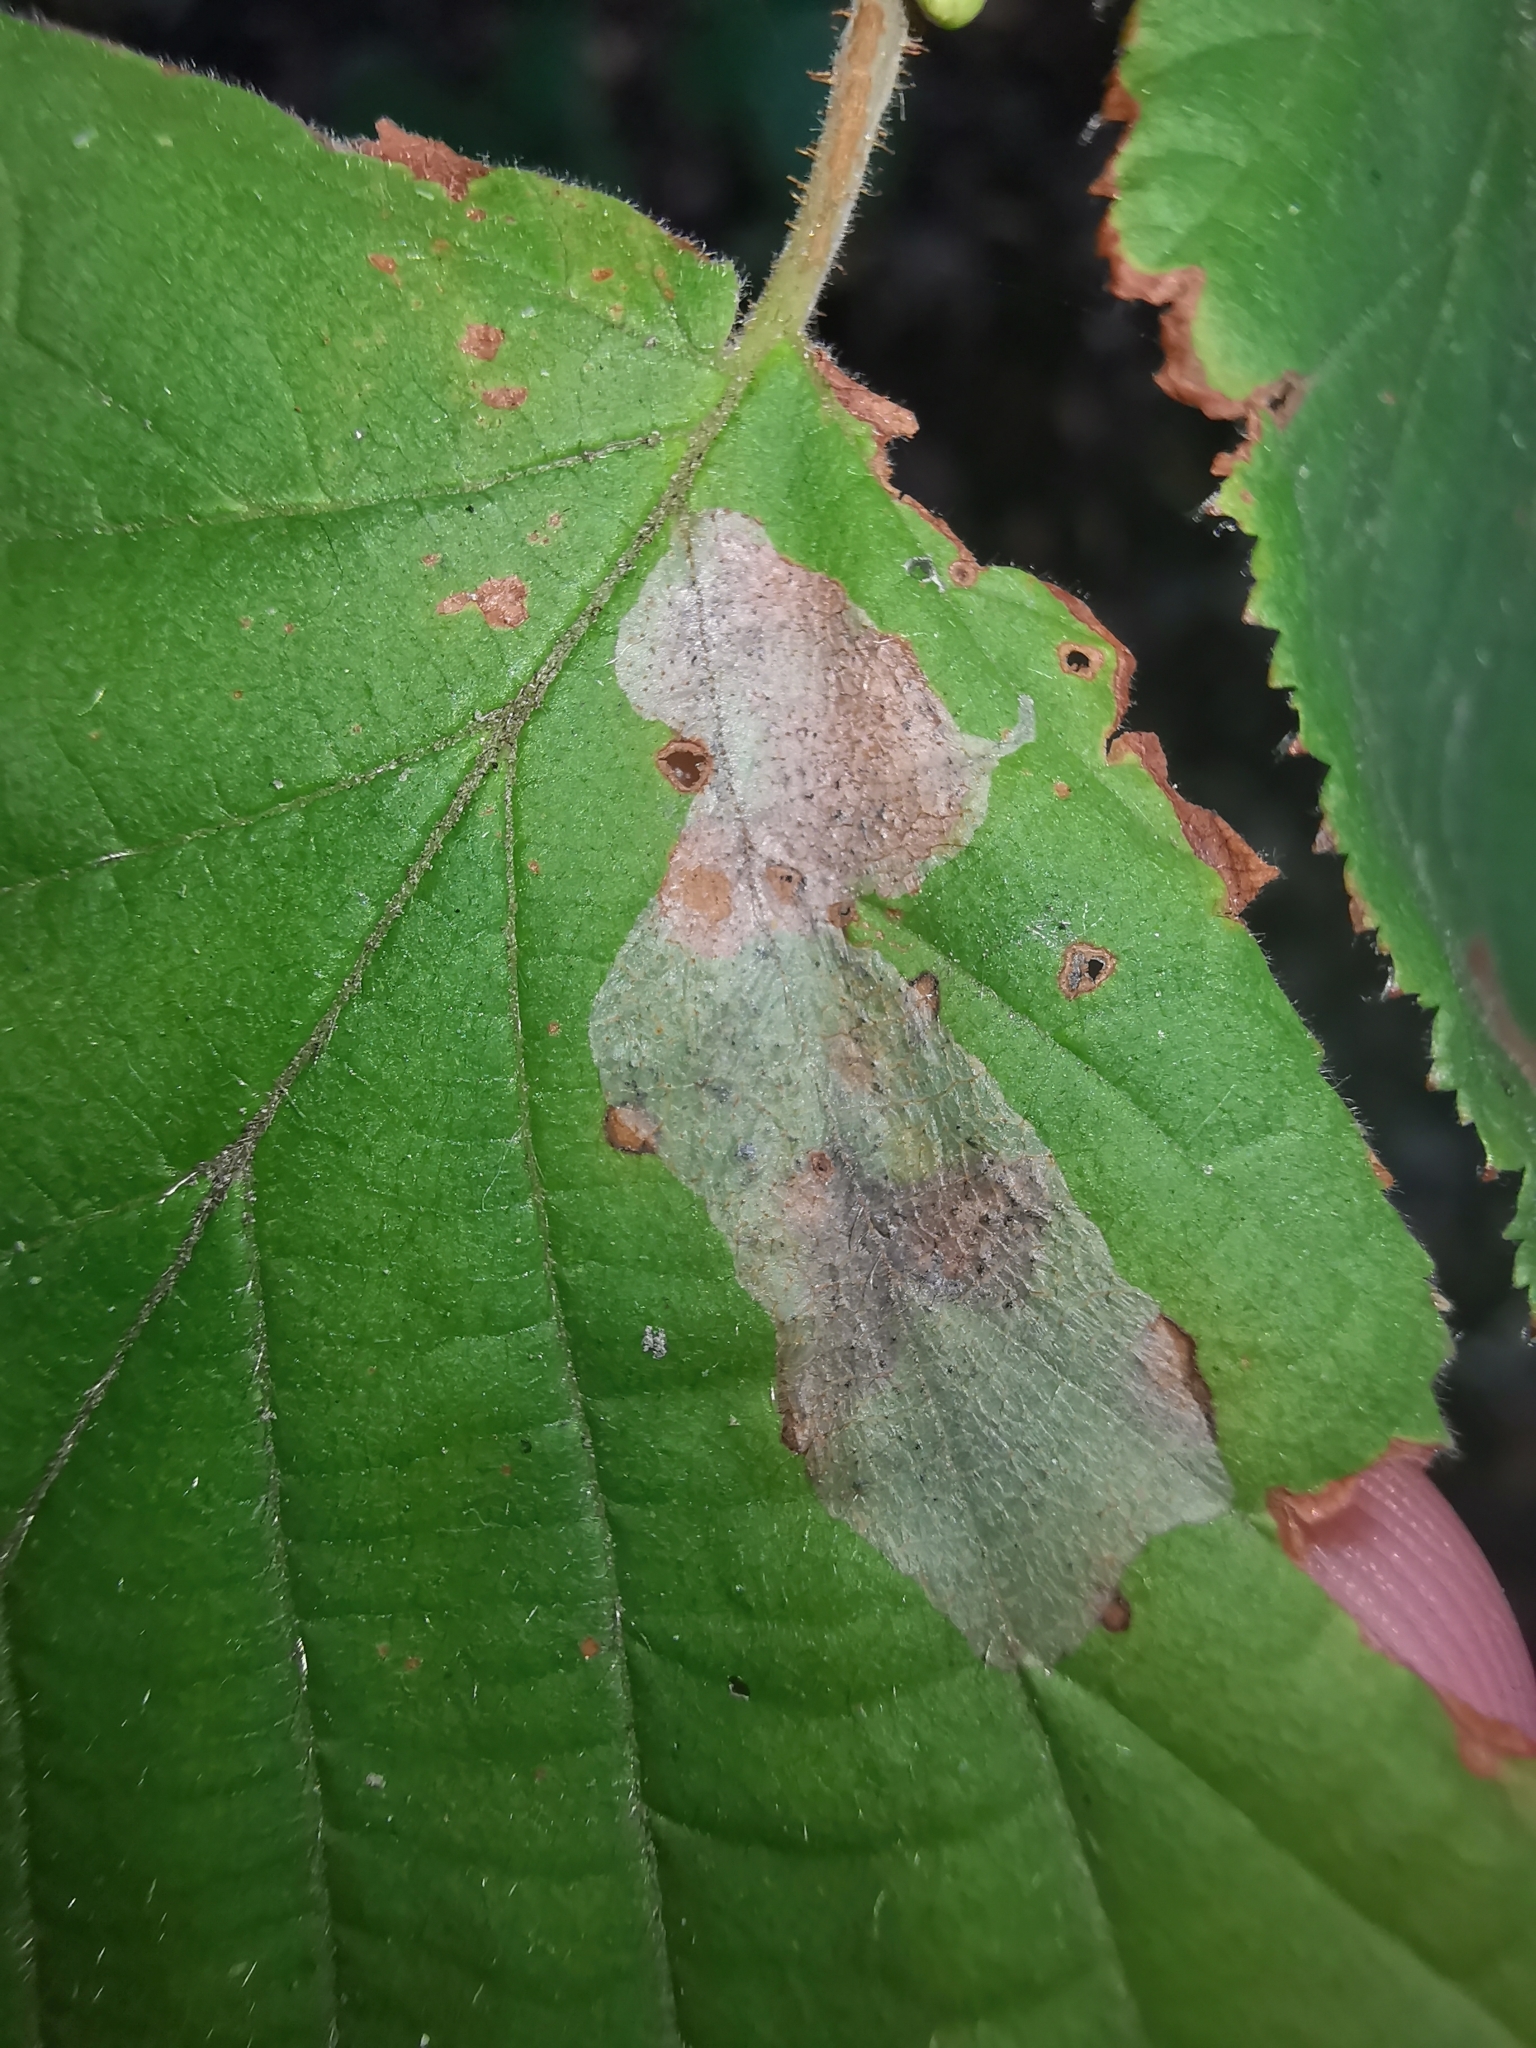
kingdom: Animalia
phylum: Arthropoda
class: Insecta
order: Lepidoptera
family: Gracillariidae
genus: Phyllonorycter
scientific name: Phyllonorycter coryli
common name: Nut-leaf blister moth
